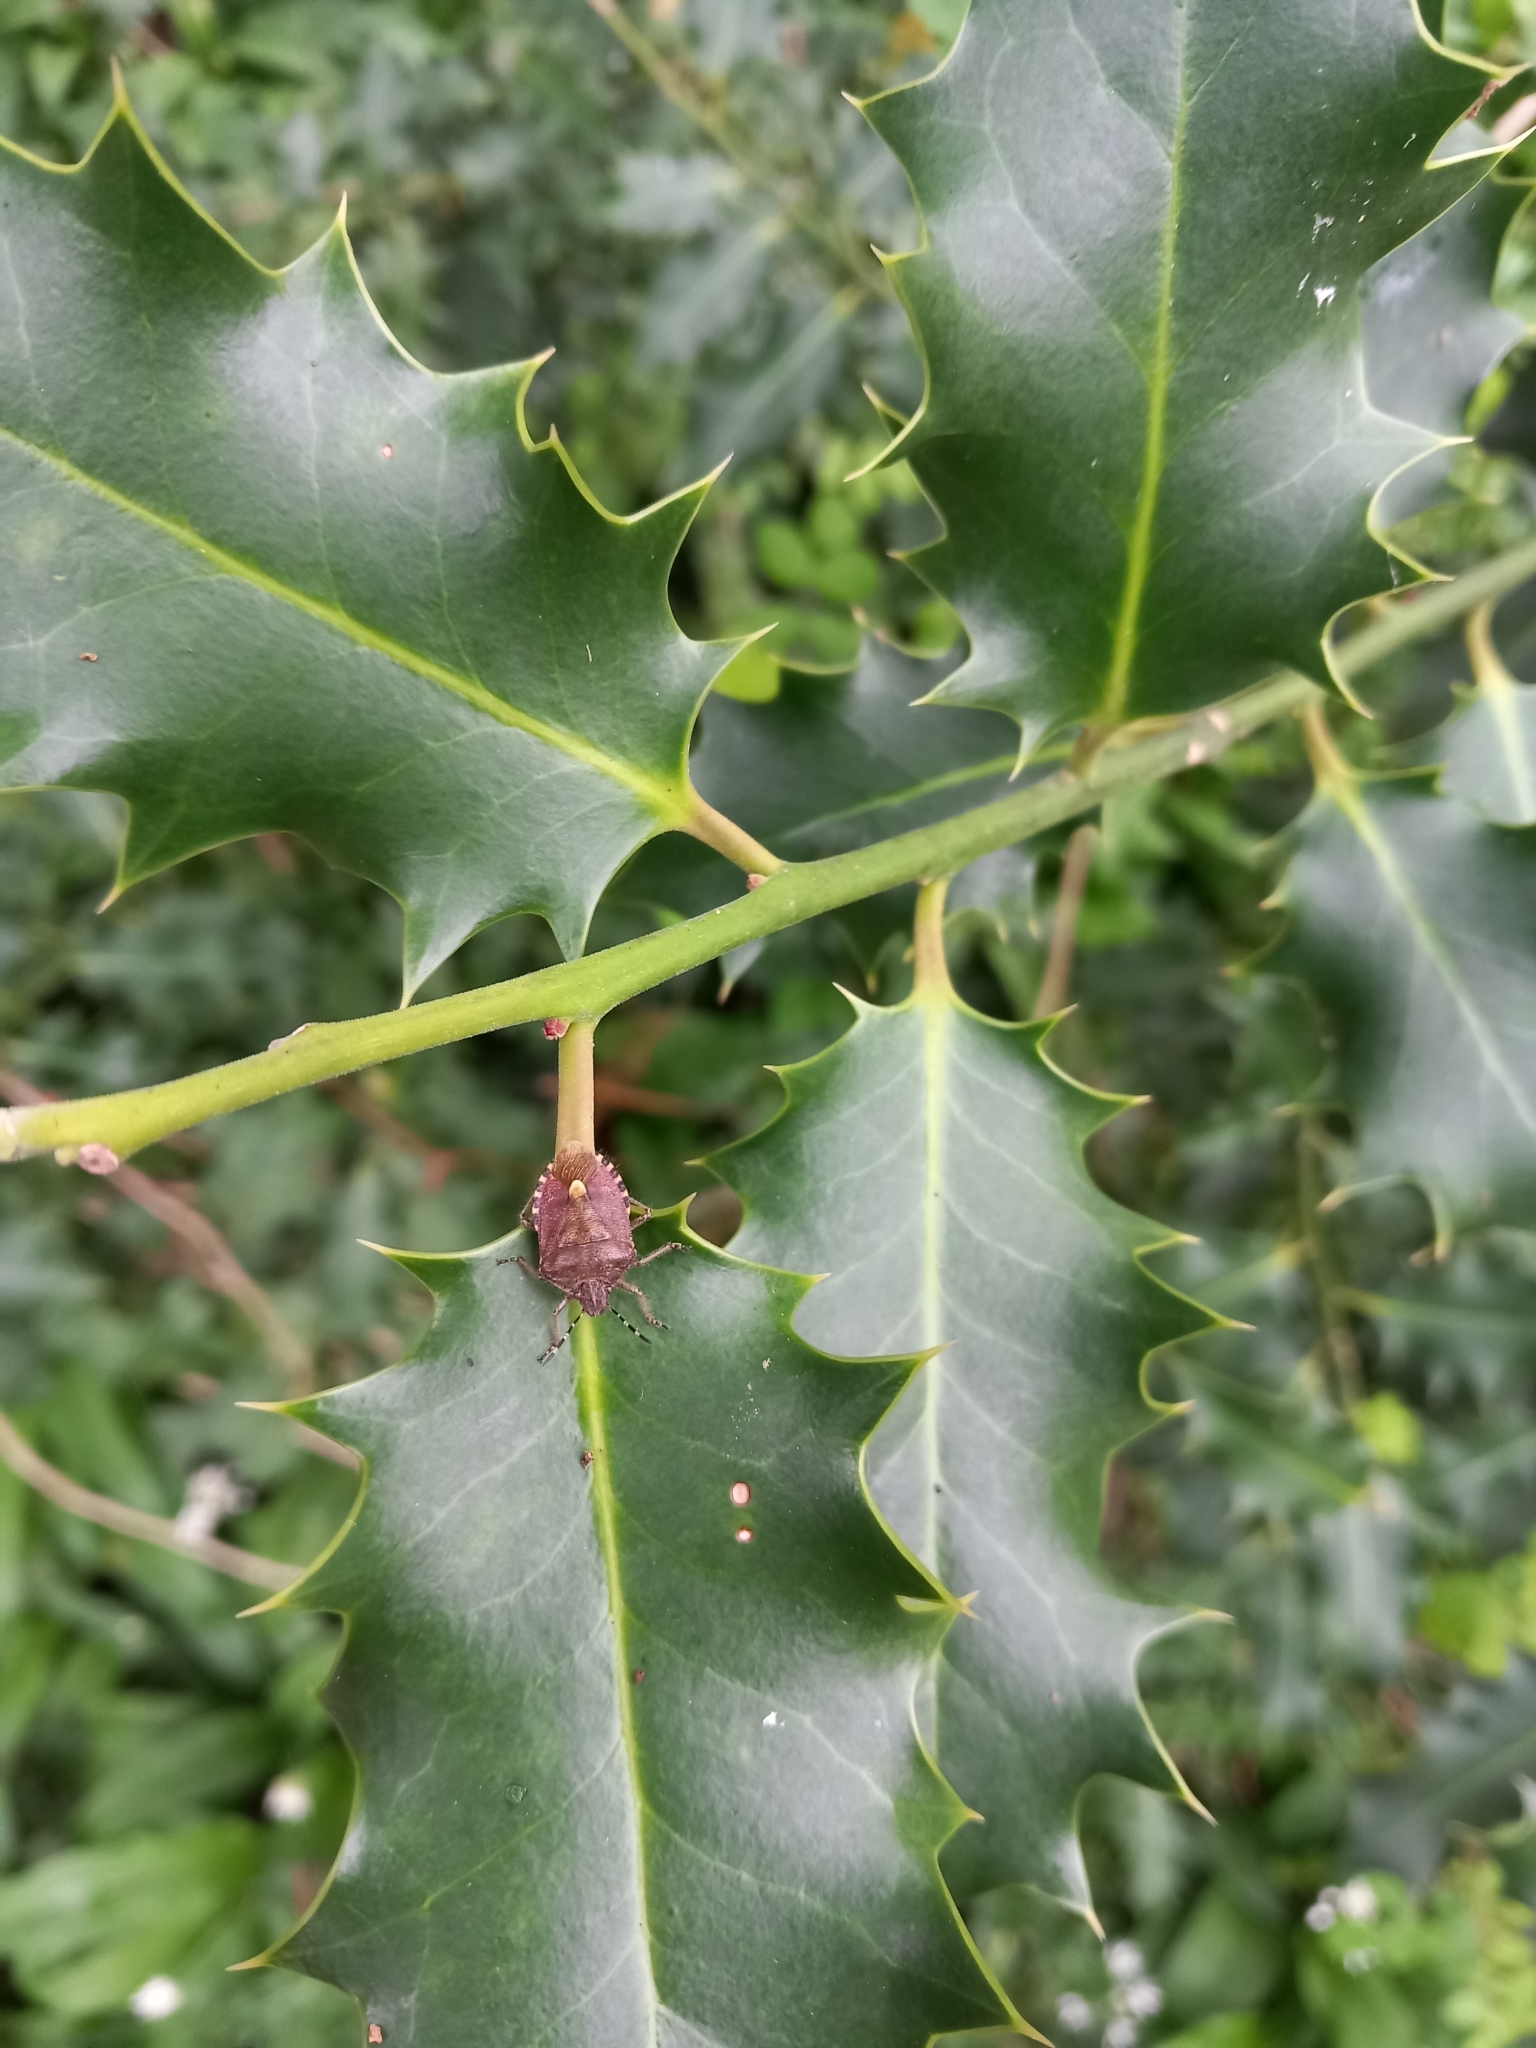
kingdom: Animalia
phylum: Arthropoda
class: Insecta
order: Hemiptera
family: Pentatomidae
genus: Dolycoris
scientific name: Dolycoris baccarum
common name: Sloe bug
